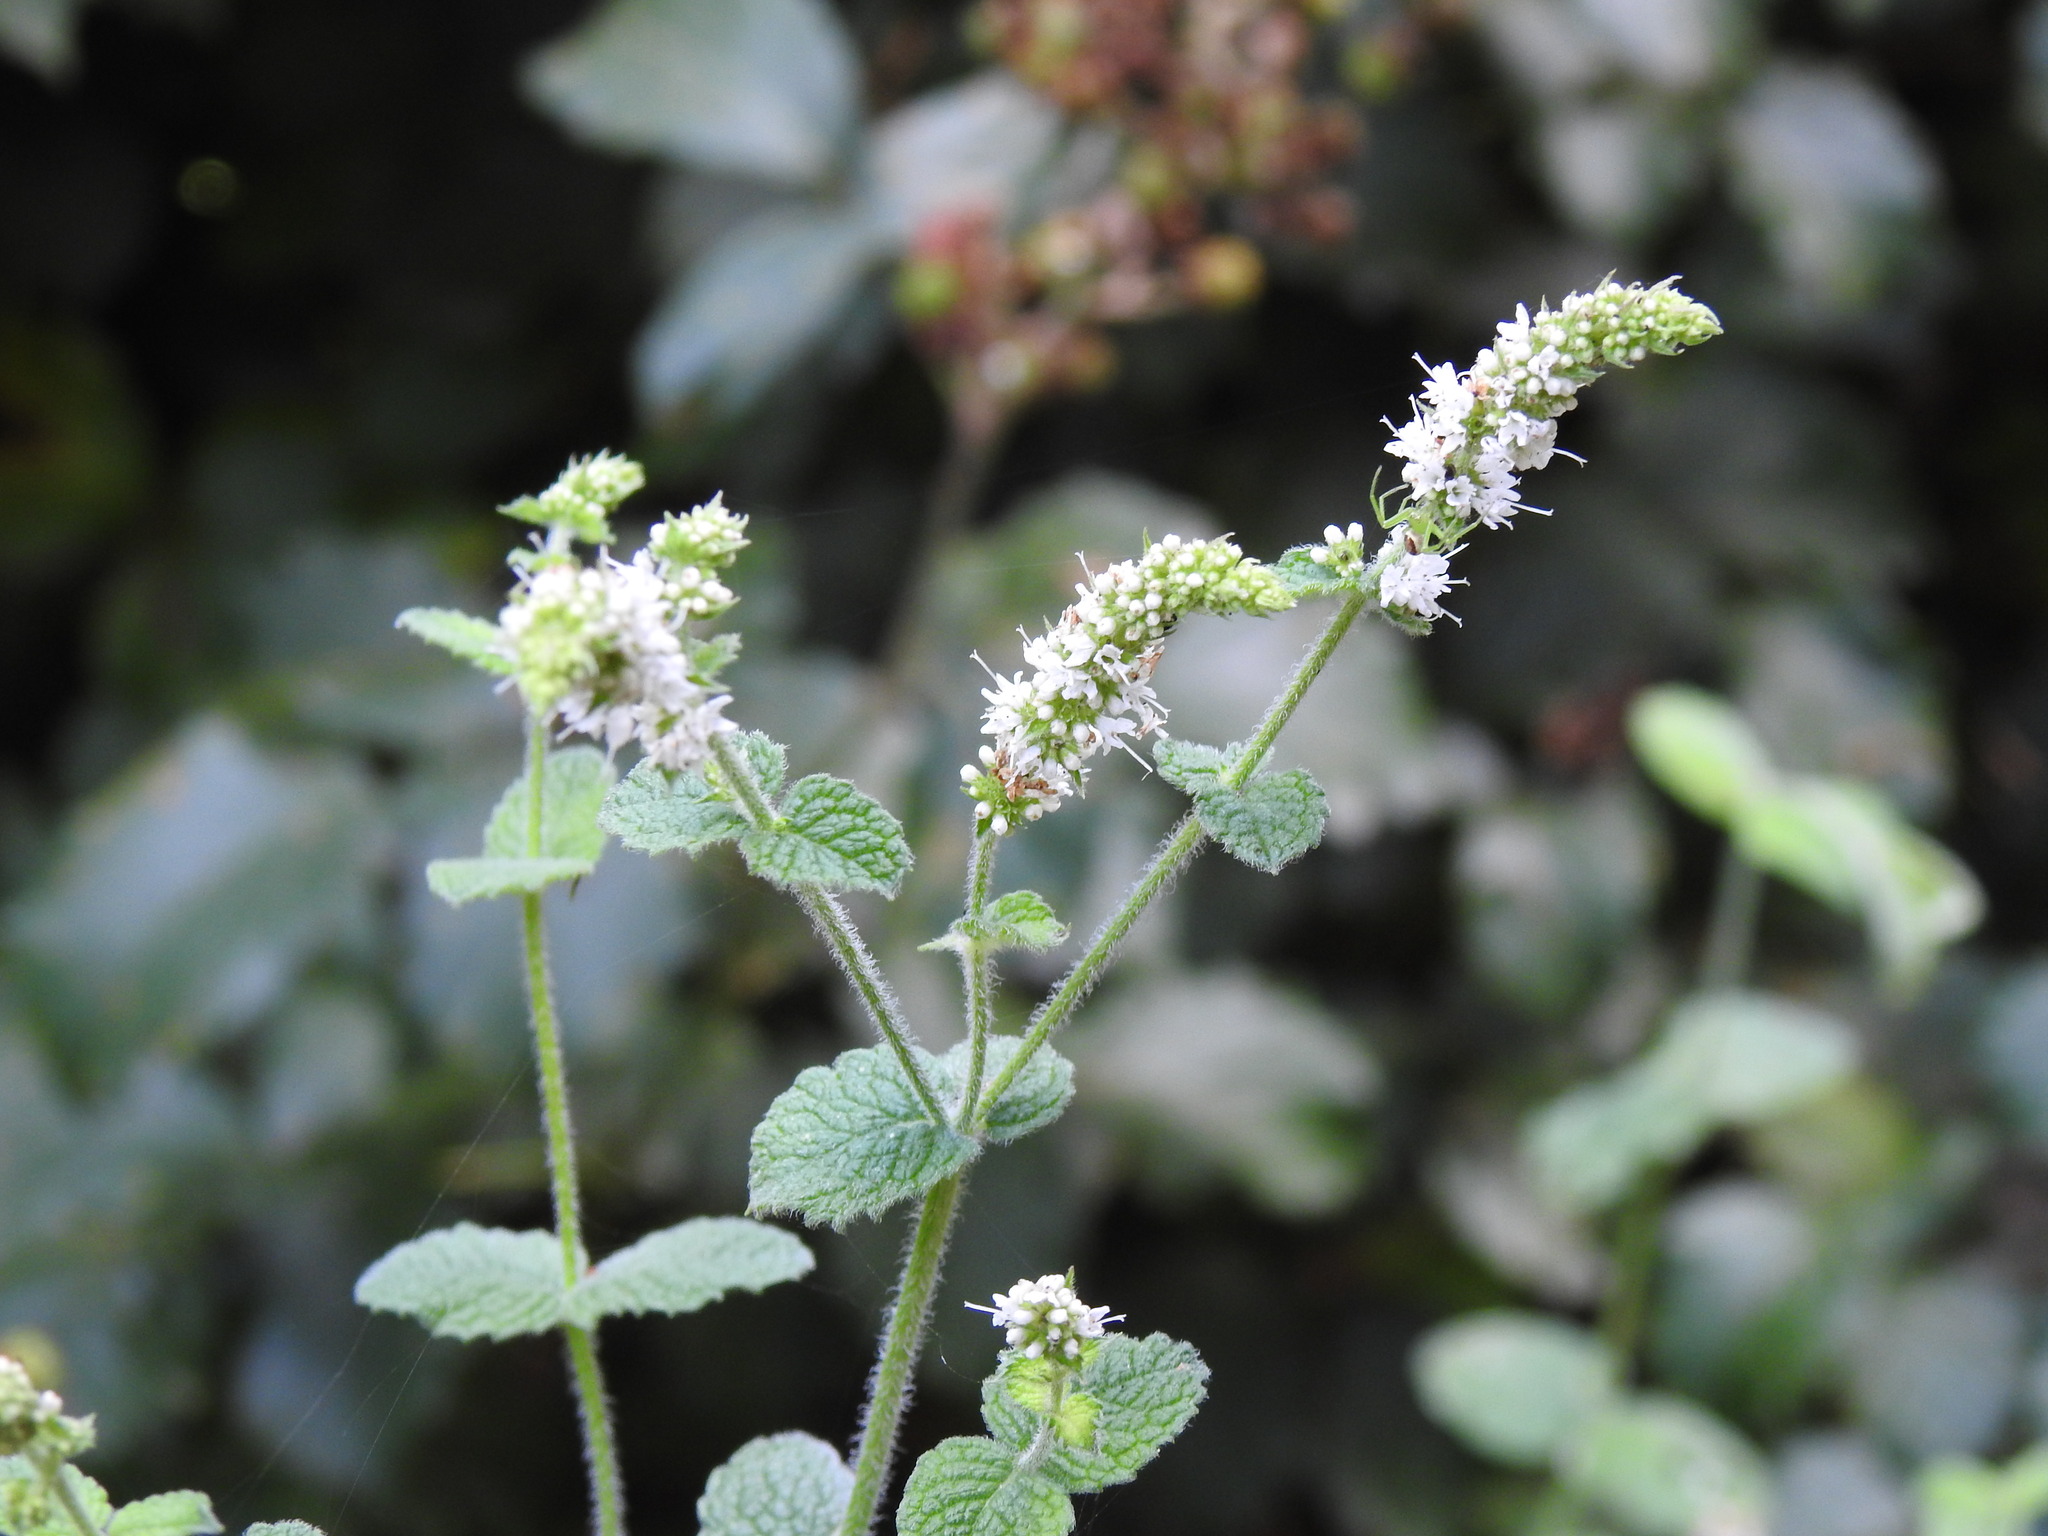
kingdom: Plantae
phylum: Tracheophyta
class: Magnoliopsida
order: Lamiales
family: Lamiaceae
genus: Mentha
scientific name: Mentha suaveolens
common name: Apple mint
